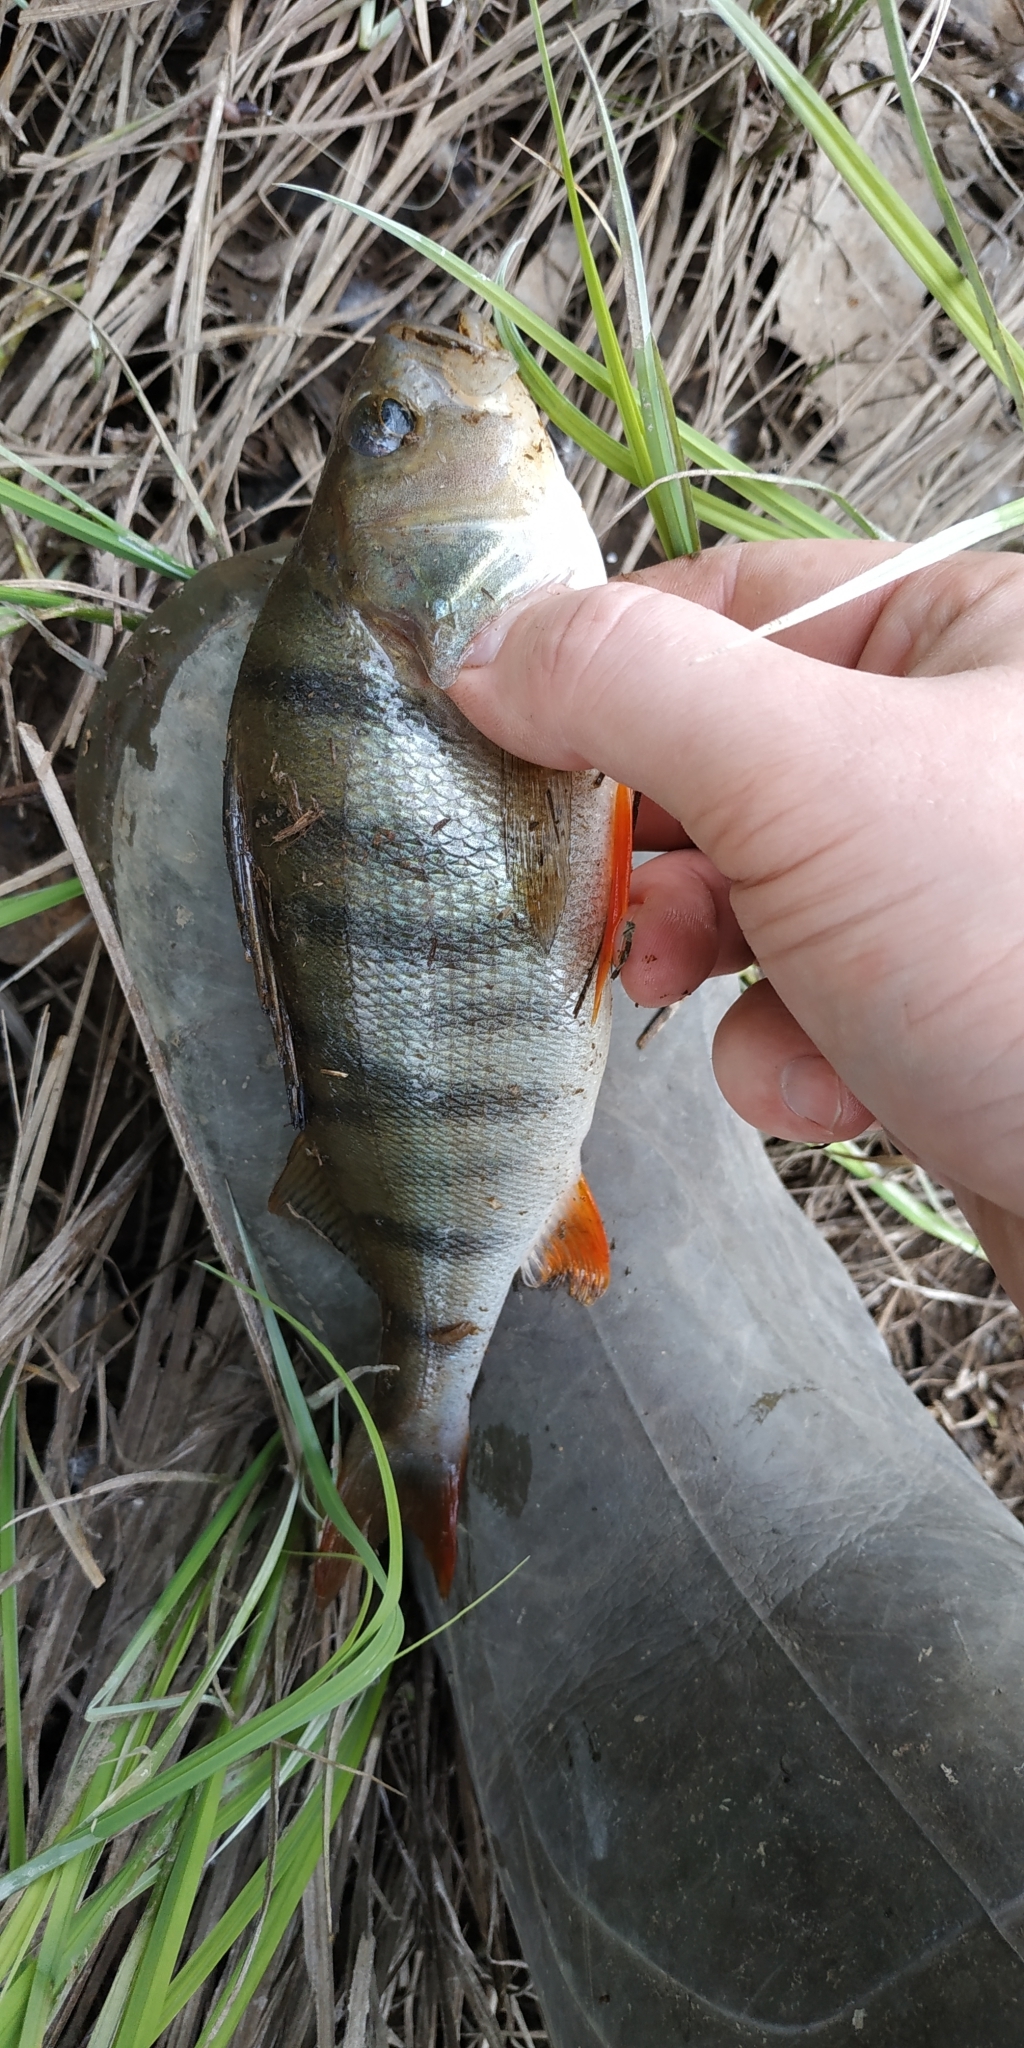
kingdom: Animalia
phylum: Chordata
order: Perciformes
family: Percidae
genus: Perca
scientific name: Perca fluviatilis
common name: Perch
